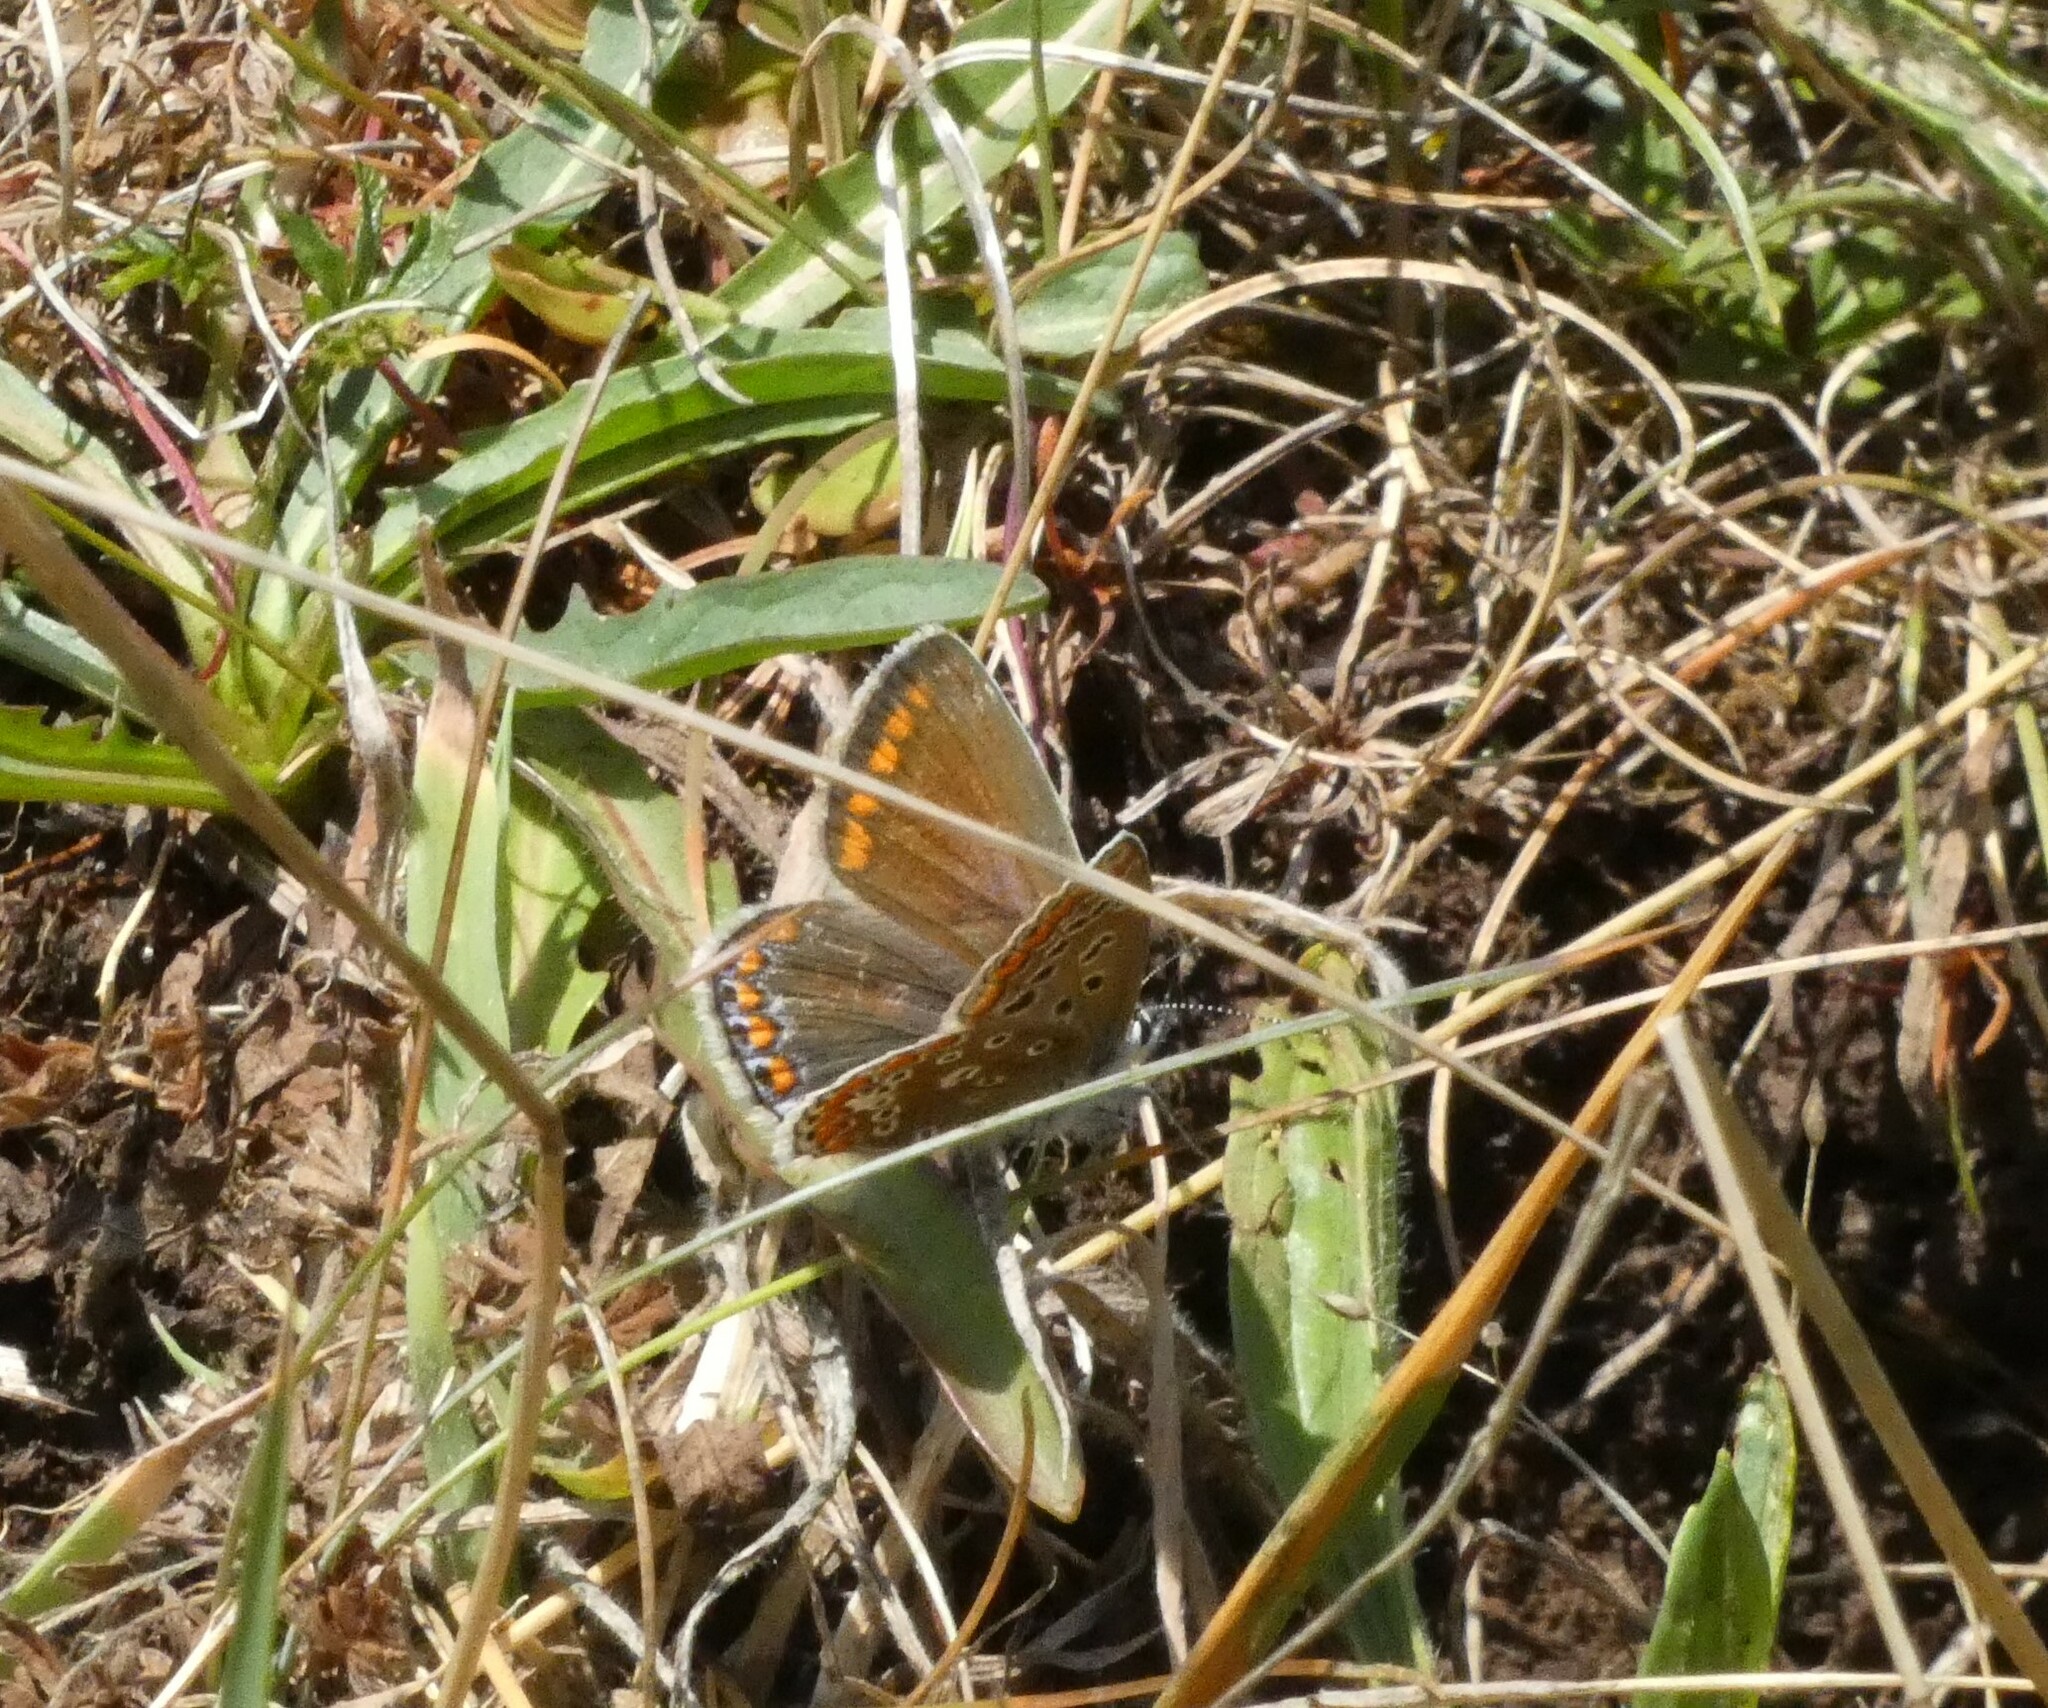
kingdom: Animalia
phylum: Arthropoda
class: Insecta
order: Lepidoptera
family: Lycaenidae
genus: Polyommatus
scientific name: Polyommatus icarus
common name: Common blue
